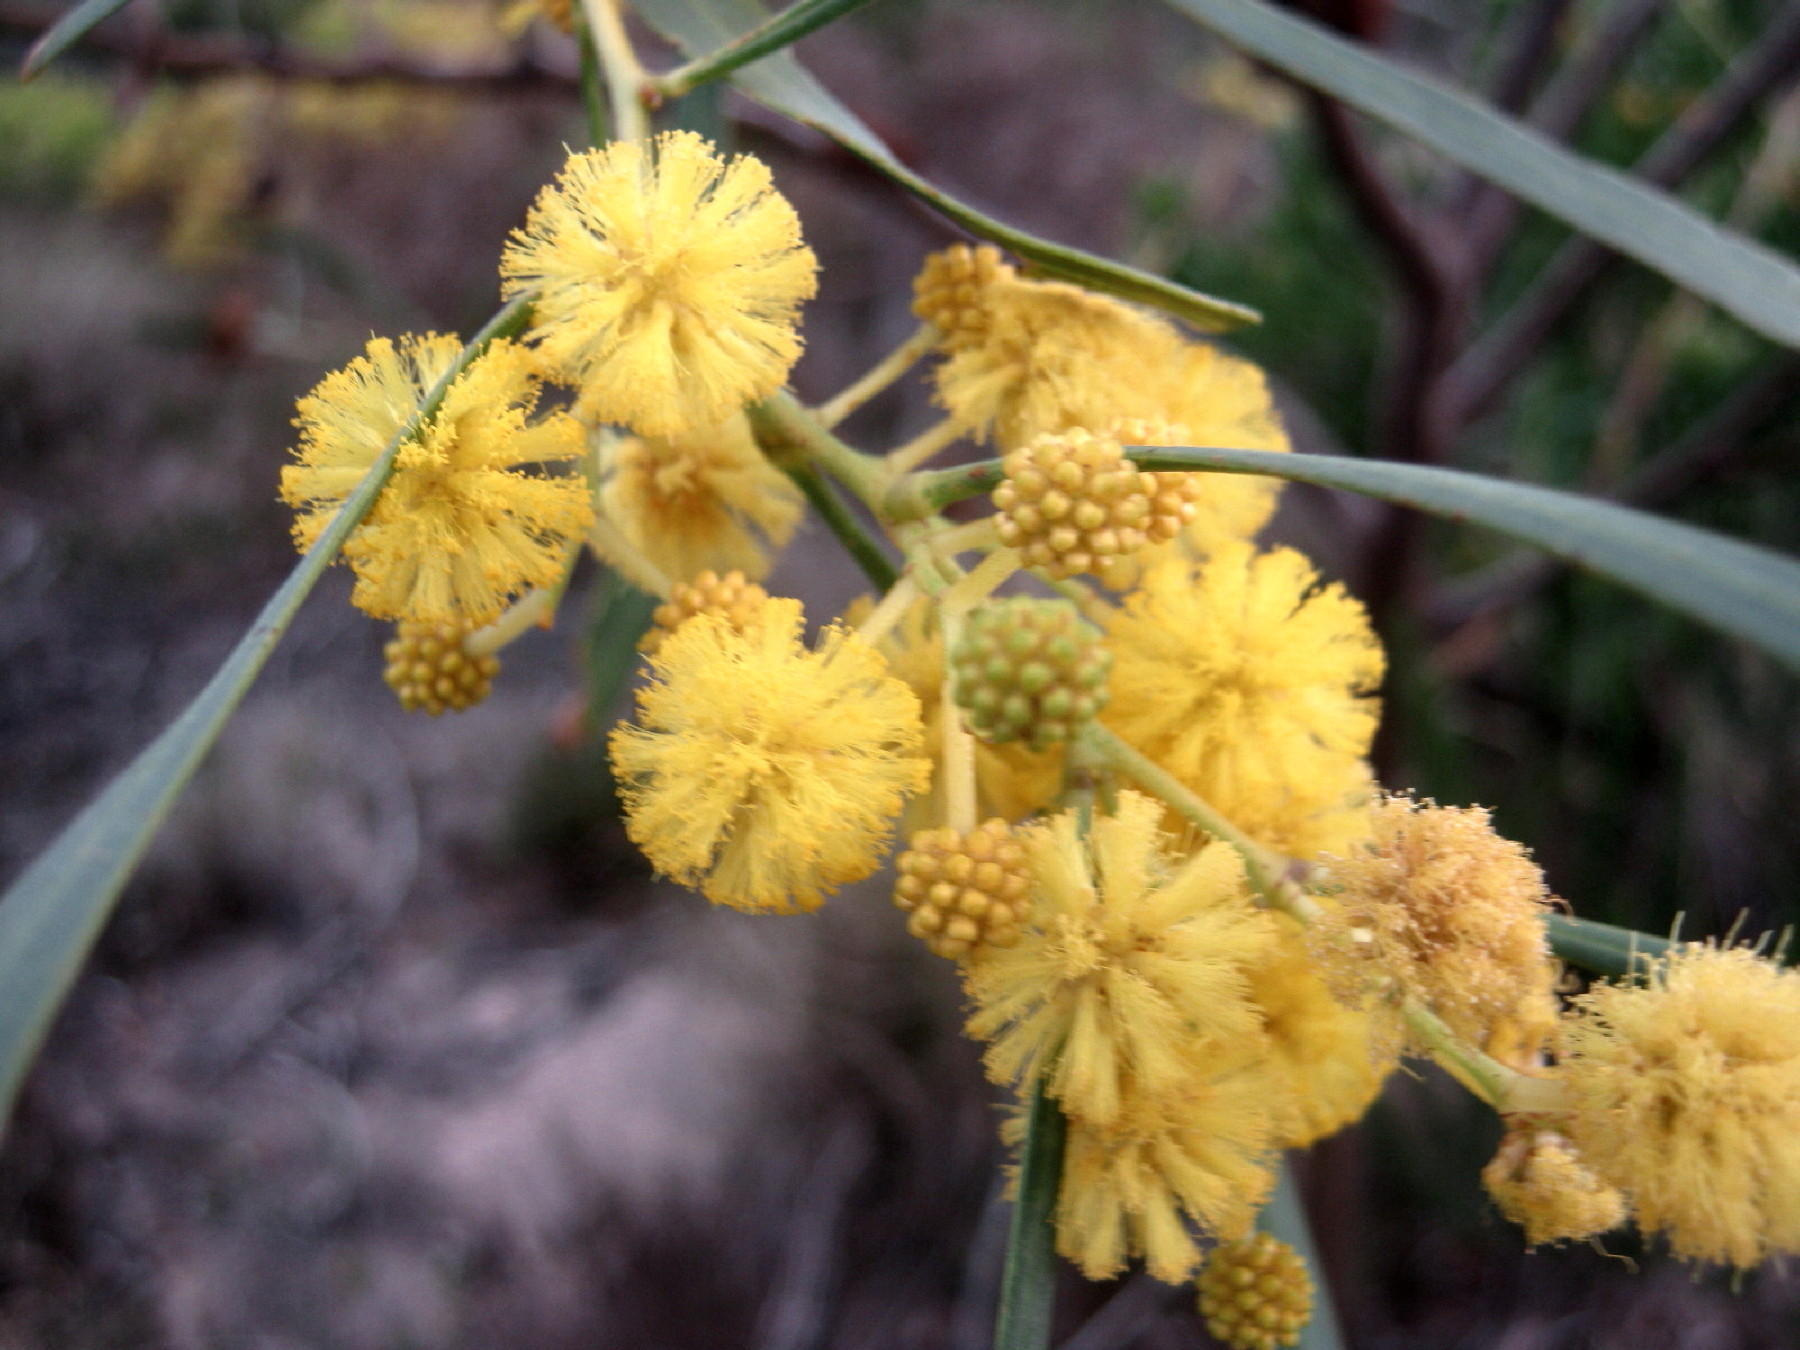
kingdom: Plantae
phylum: Tracheophyta
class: Magnoliopsida
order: Fabales
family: Fabaceae
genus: Acacia
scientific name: Acacia saligna
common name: Orange wattle
